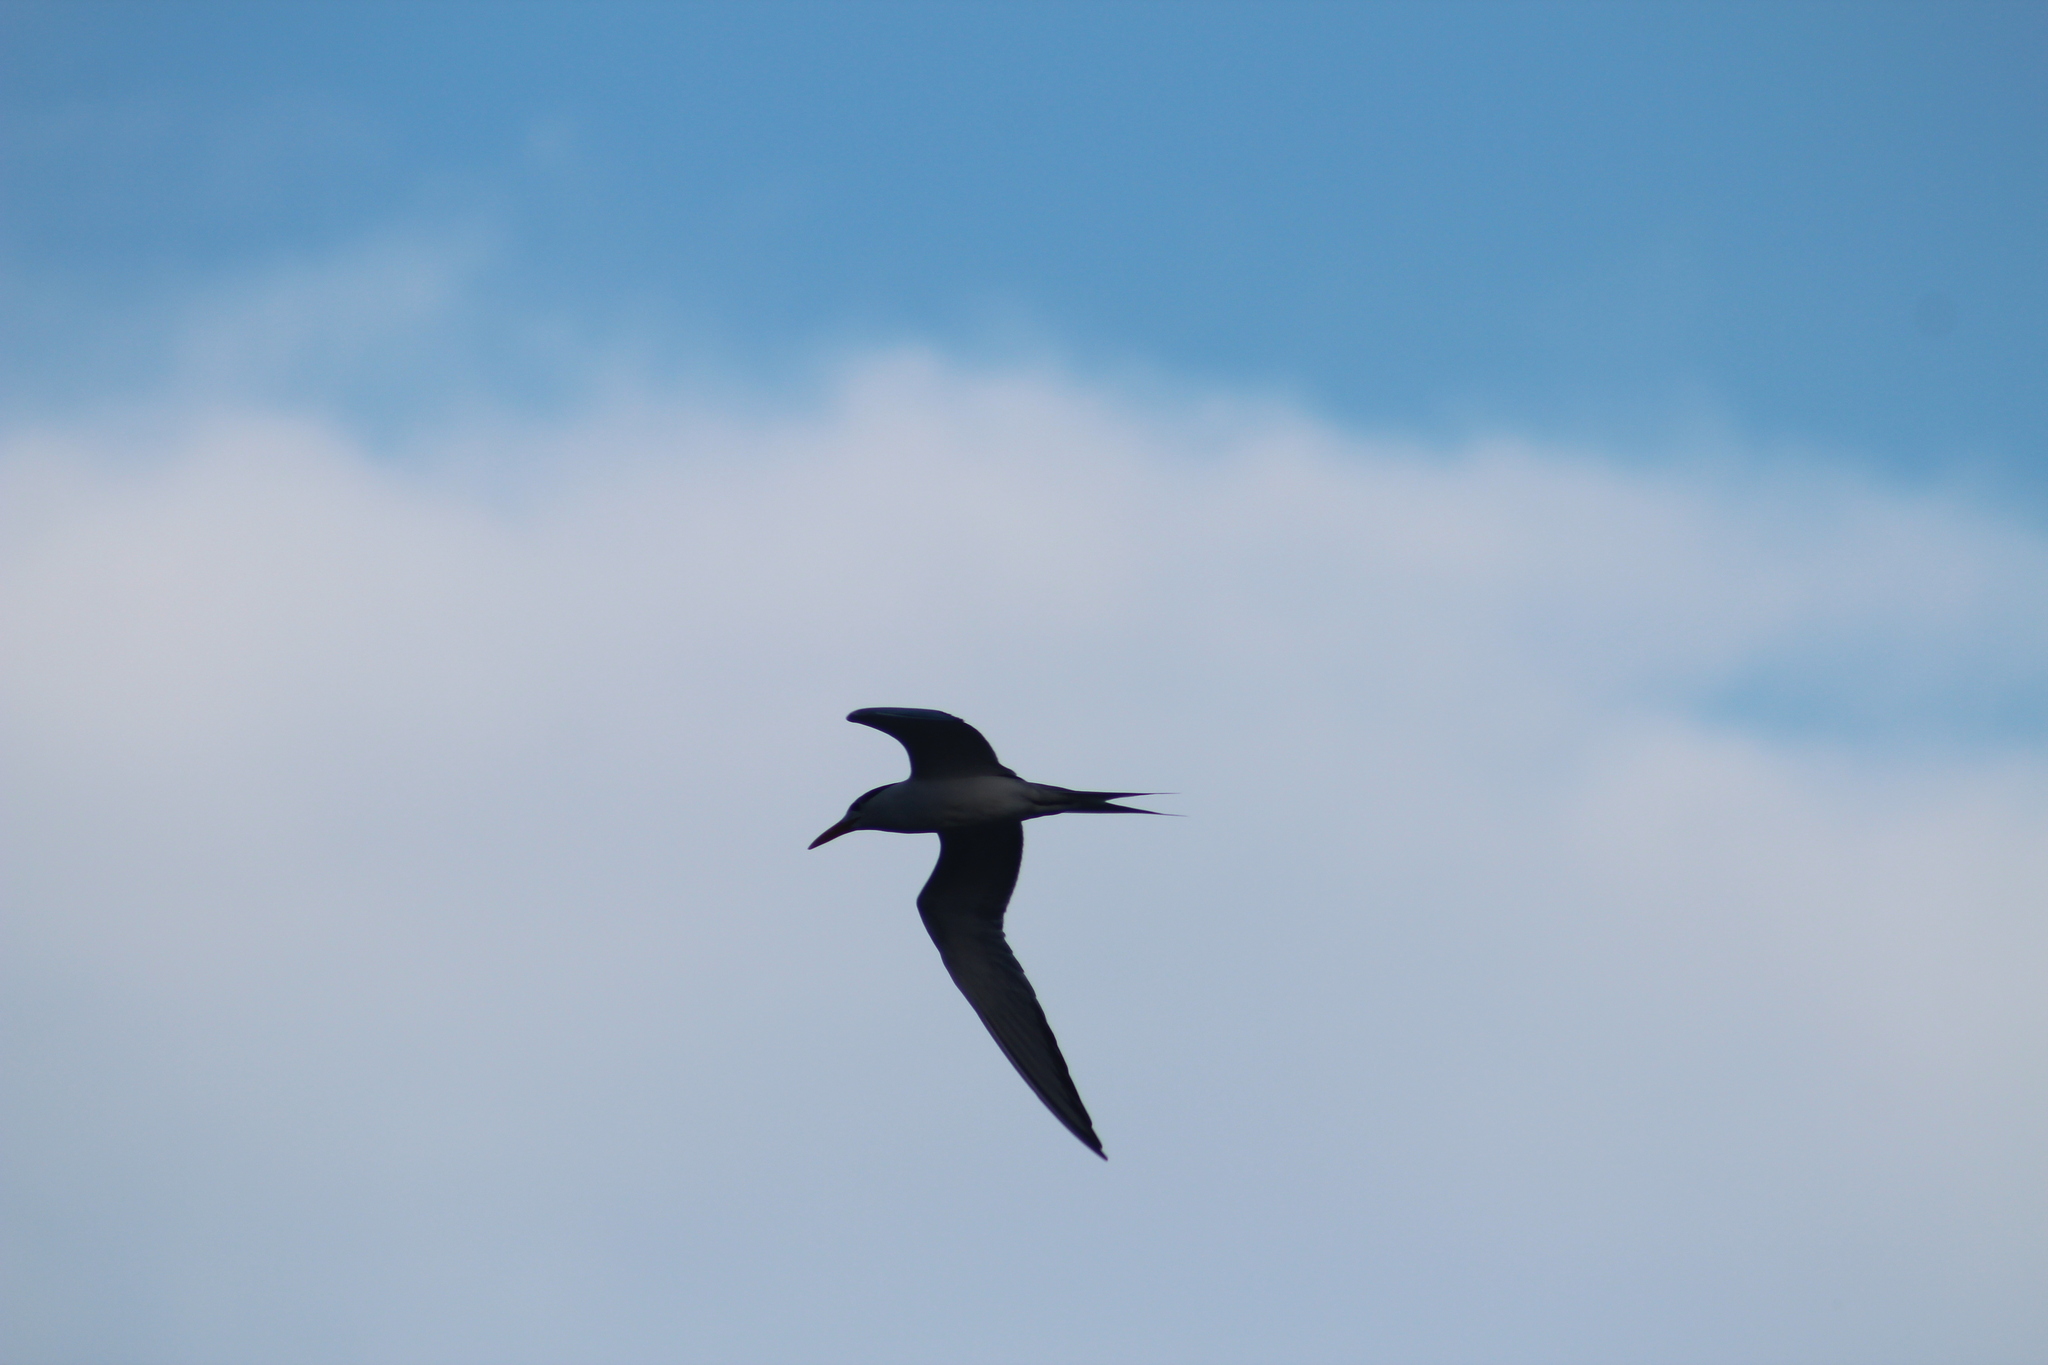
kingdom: Animalia
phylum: Chordata
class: Aves
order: Charadriiformes
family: Laridae
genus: Thalasseus
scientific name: Thalasseus bergii
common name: Greater crested tern
